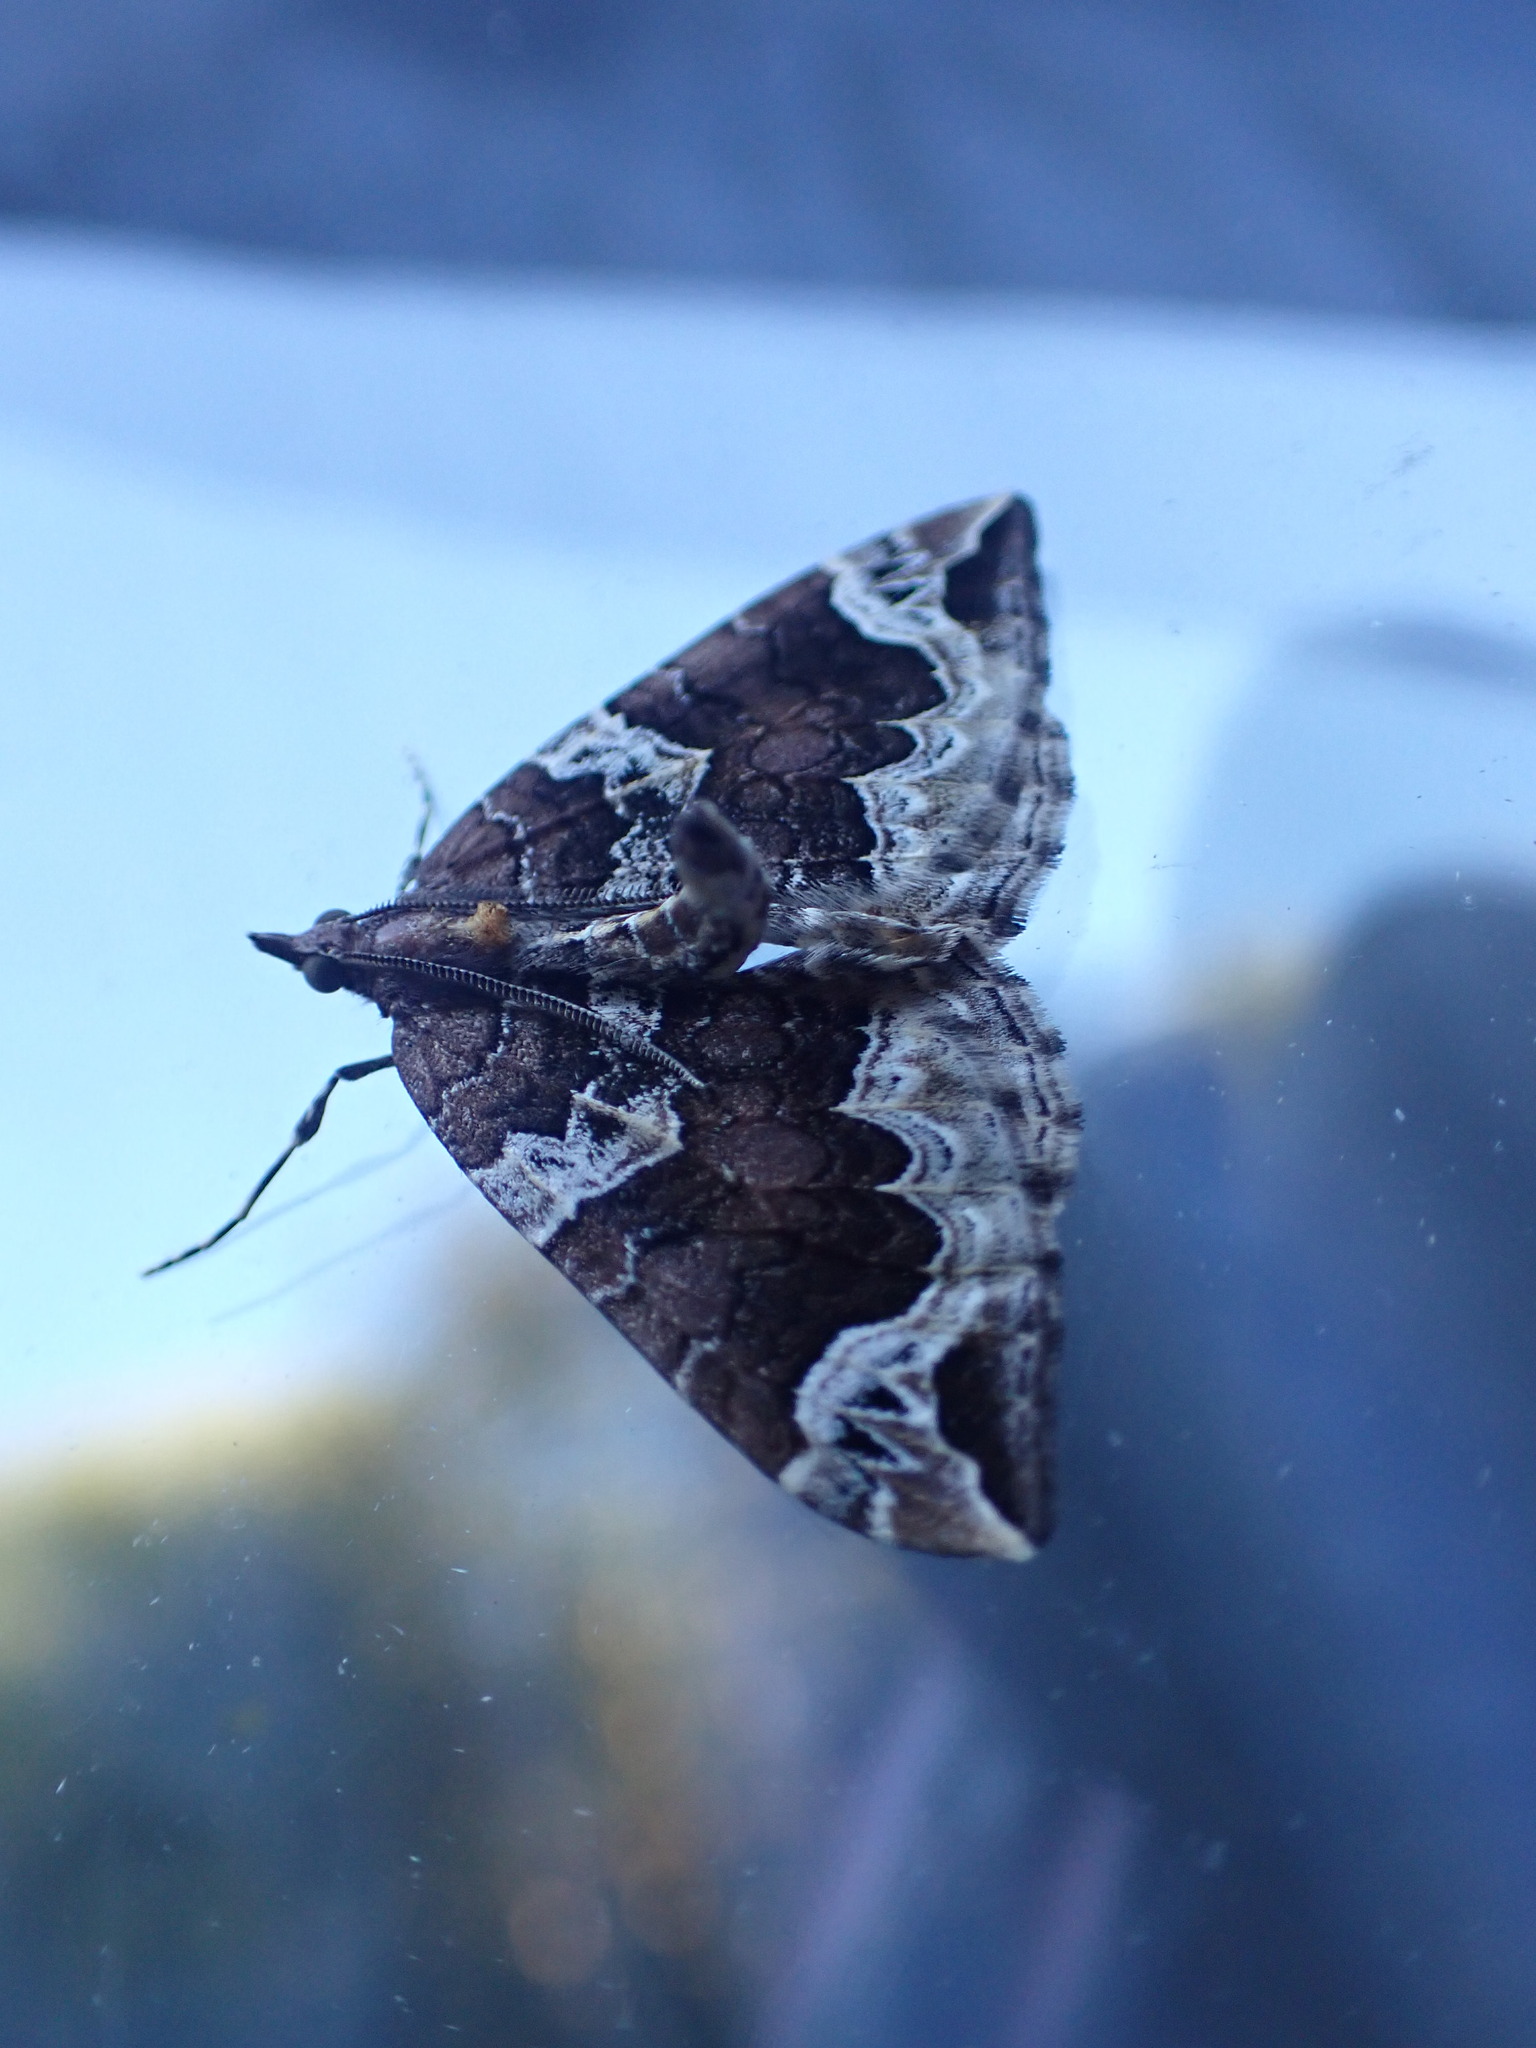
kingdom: Animalia
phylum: Arthropoda
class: Insecta
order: Lepidoptera
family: Geometridae
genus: Eulithis
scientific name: Eulithis xylina
